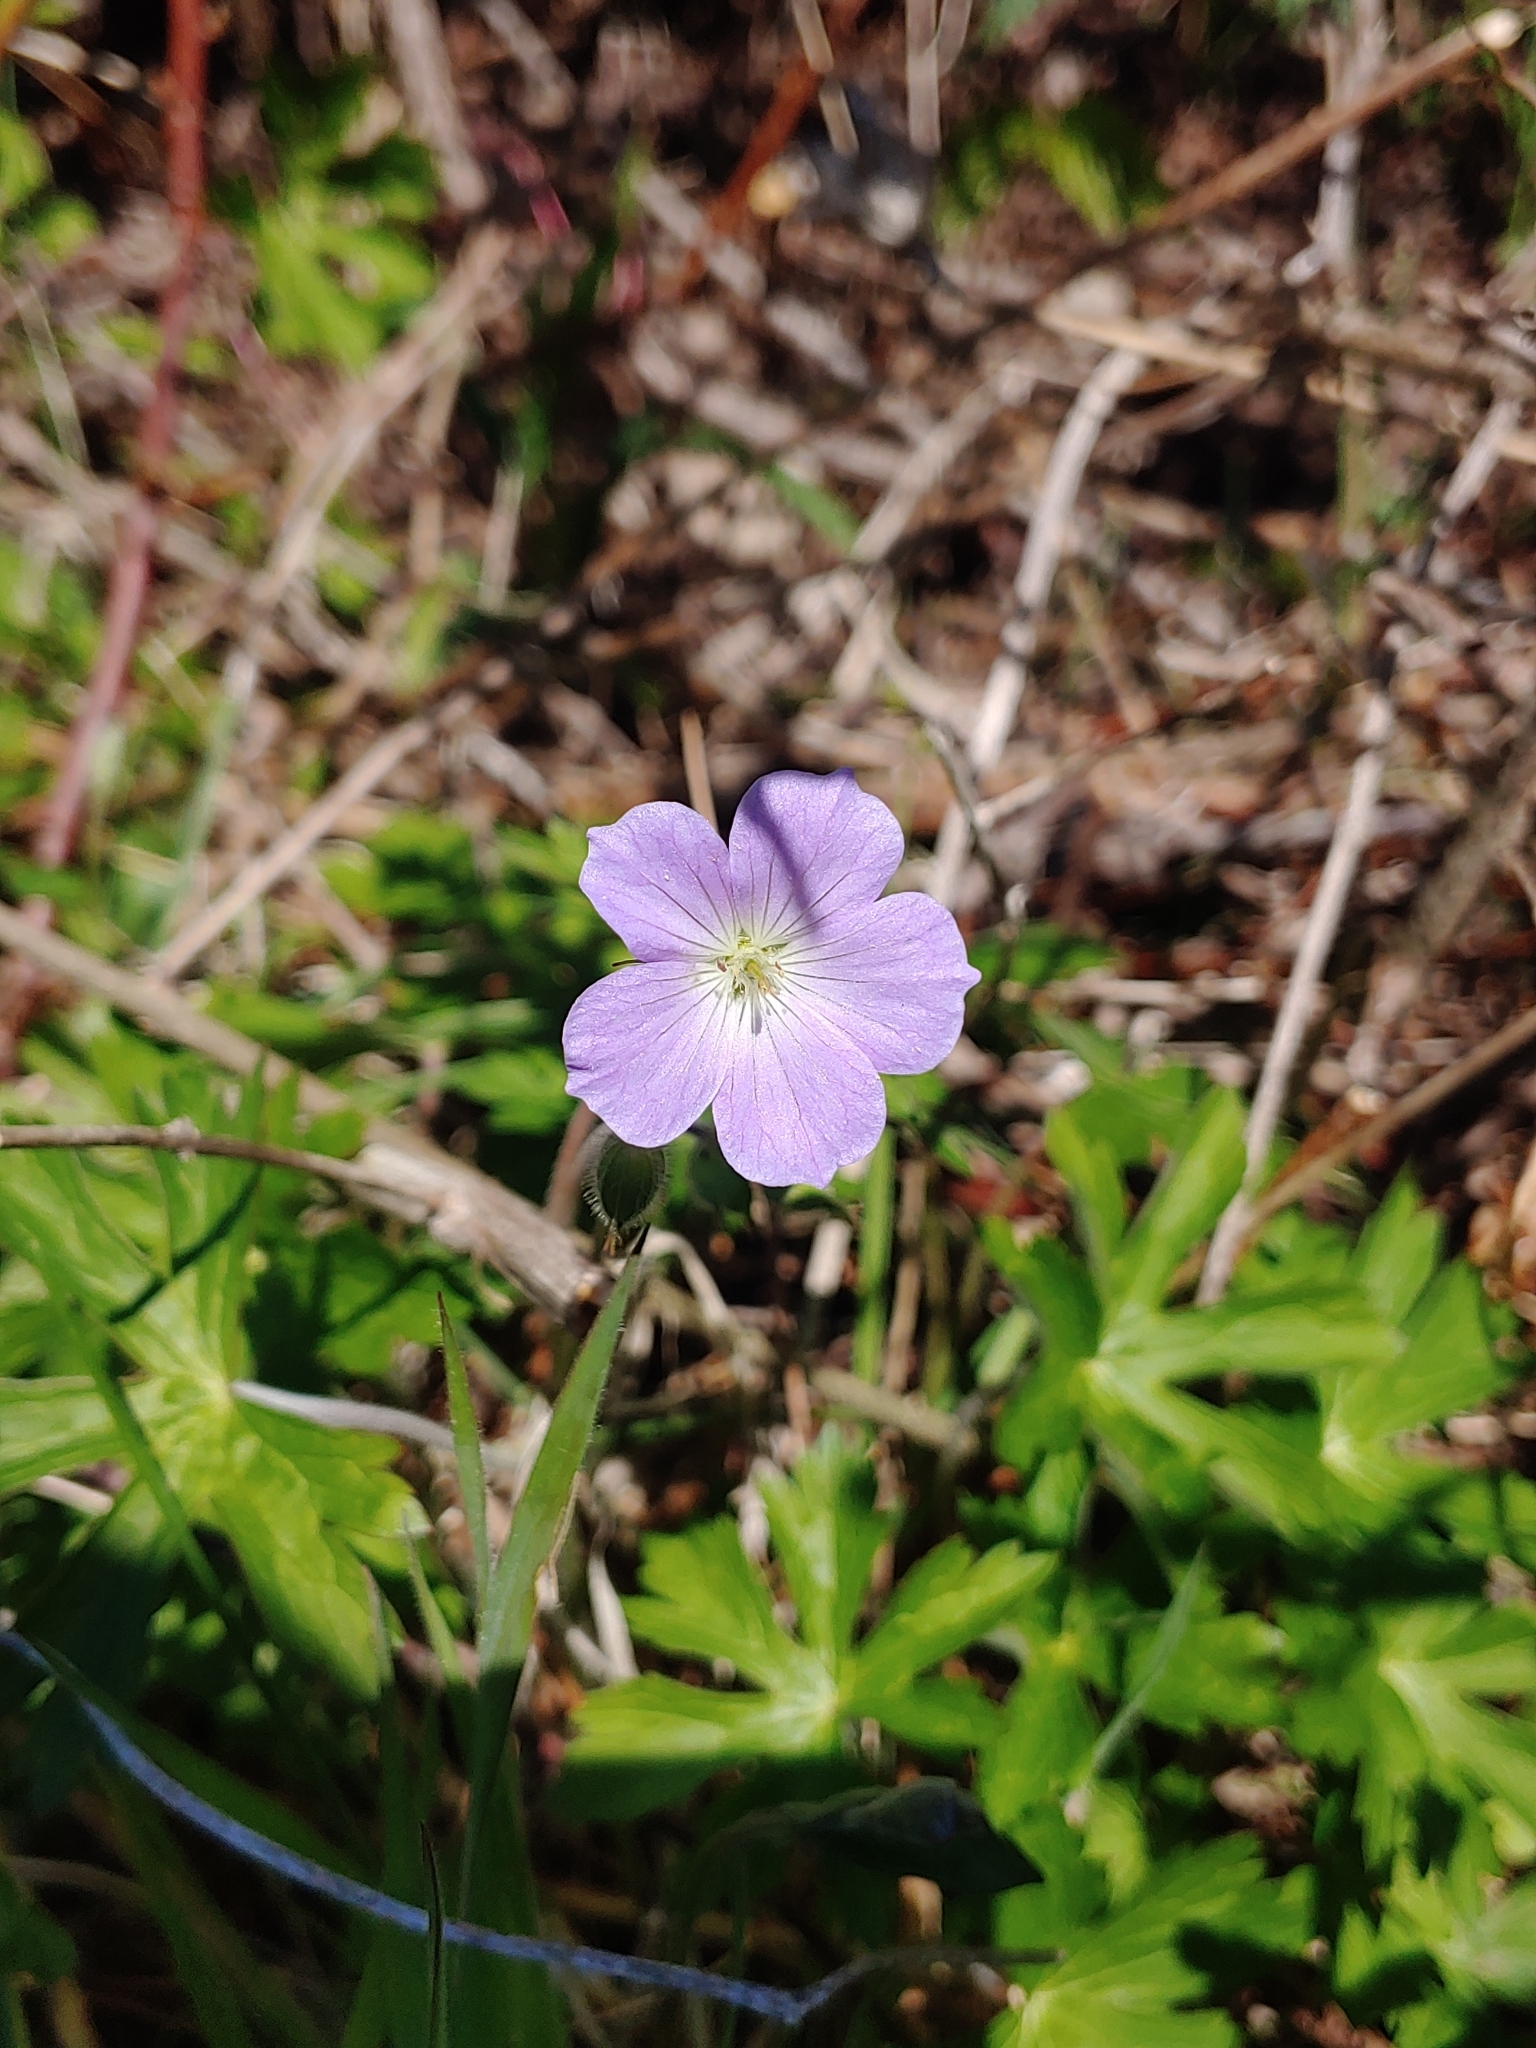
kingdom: Plantae
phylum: Tracheophyta
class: Magnoliopsida
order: Geraniales
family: Geraniaceae
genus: Geranium
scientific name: Geranium maculatum
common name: Spotted geranium
